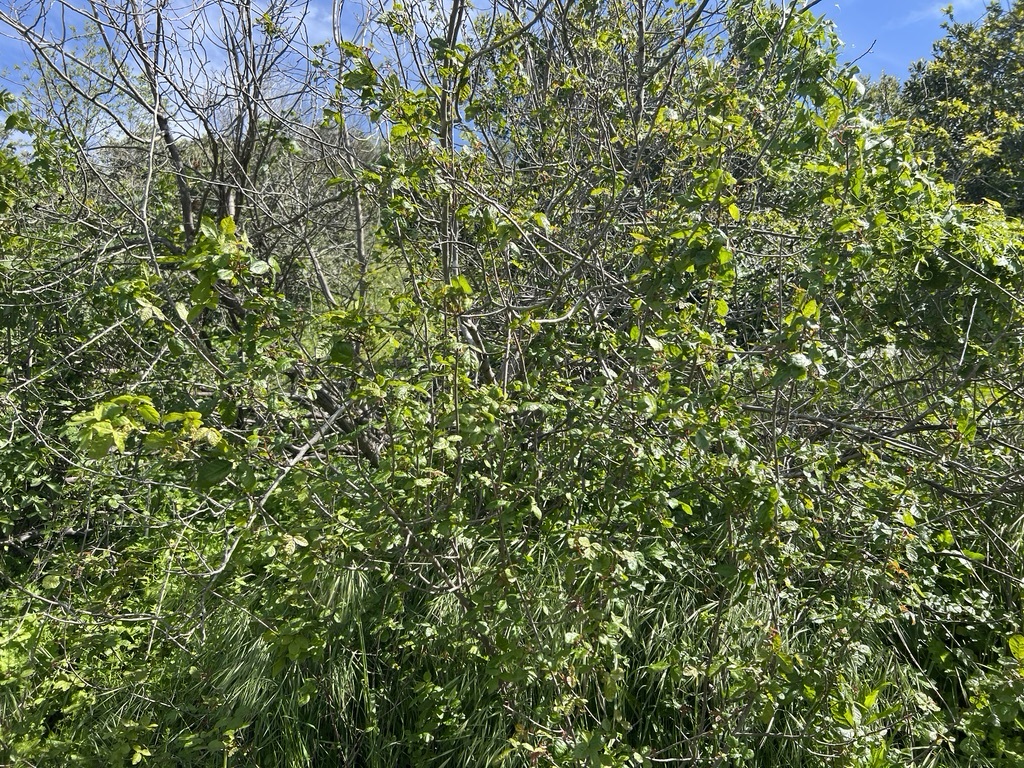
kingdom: Plantae
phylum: Tracheophyta
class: Magnoliopsida
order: Sapindales
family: Anacardiaceae
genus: Toxicodendron
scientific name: Toxicodendron diversilobum
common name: Pacific poison-oak
